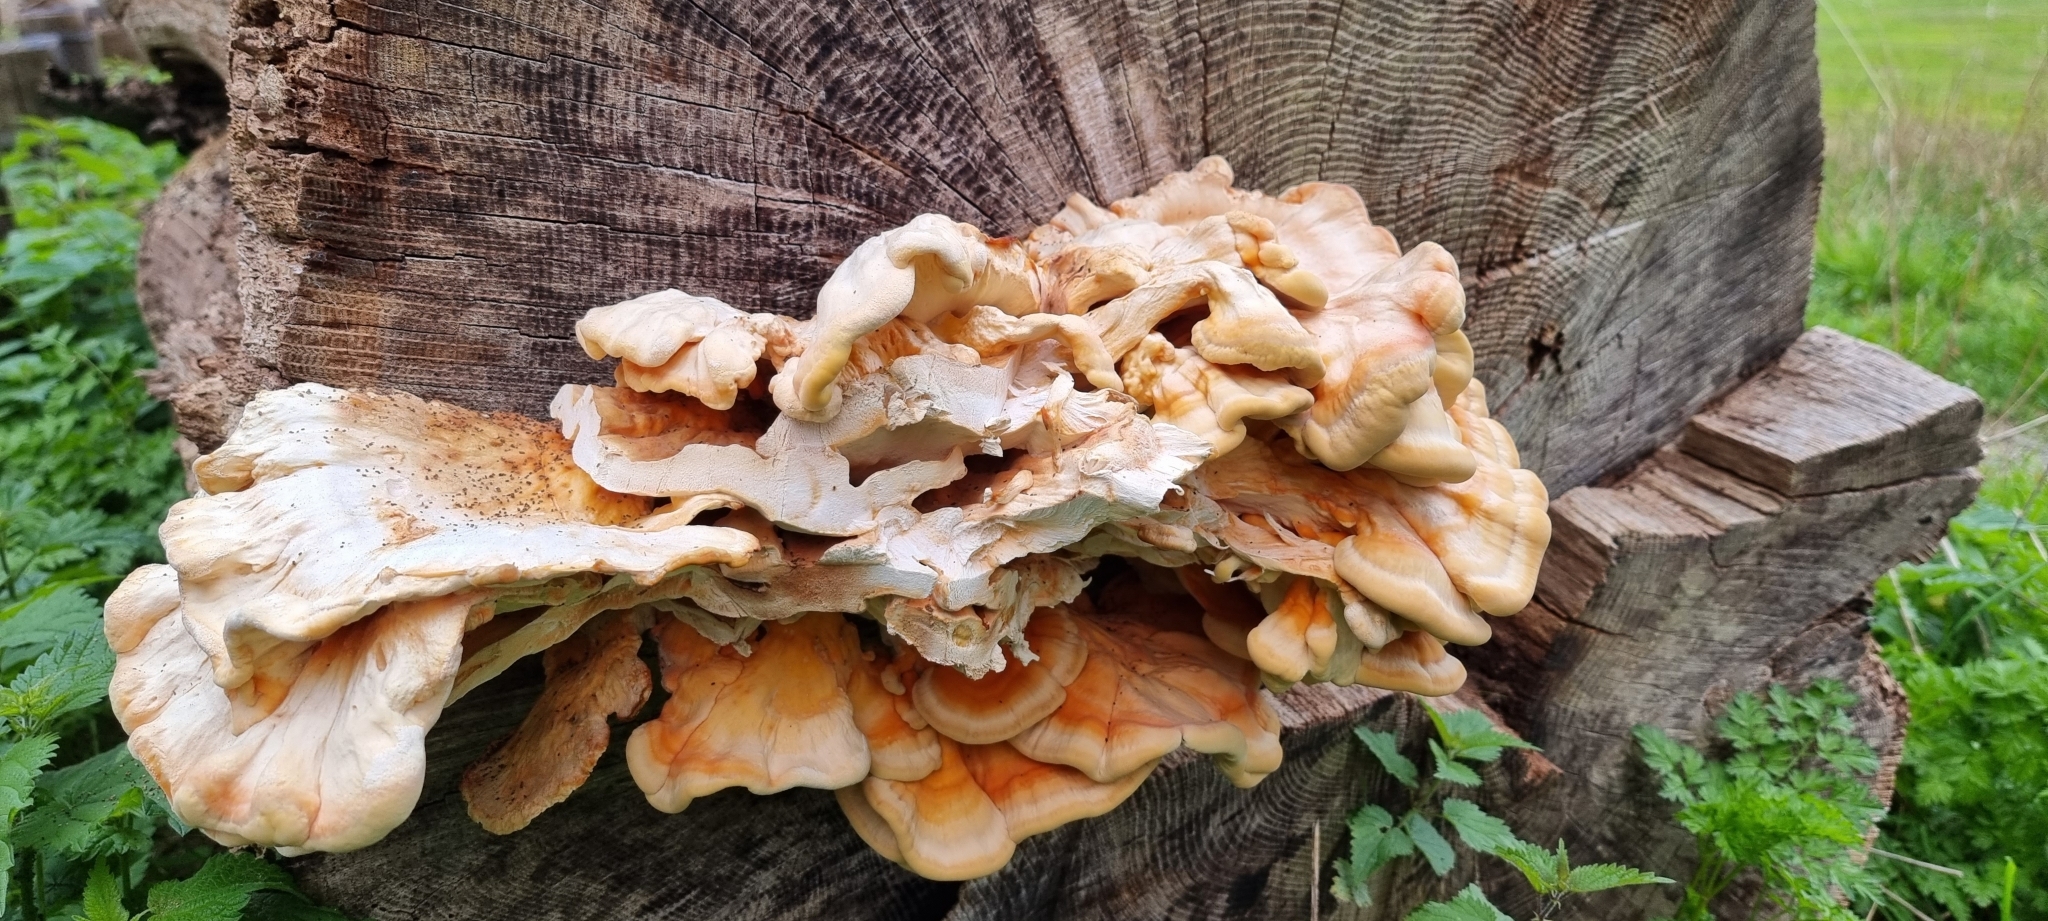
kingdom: Fungi
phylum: Basidiomycota
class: Agaricomycetes
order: Polyporales
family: Laetiporaceae
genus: Laetiporus
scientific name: Laetiporus sulphureus
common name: Chicken of the woods
